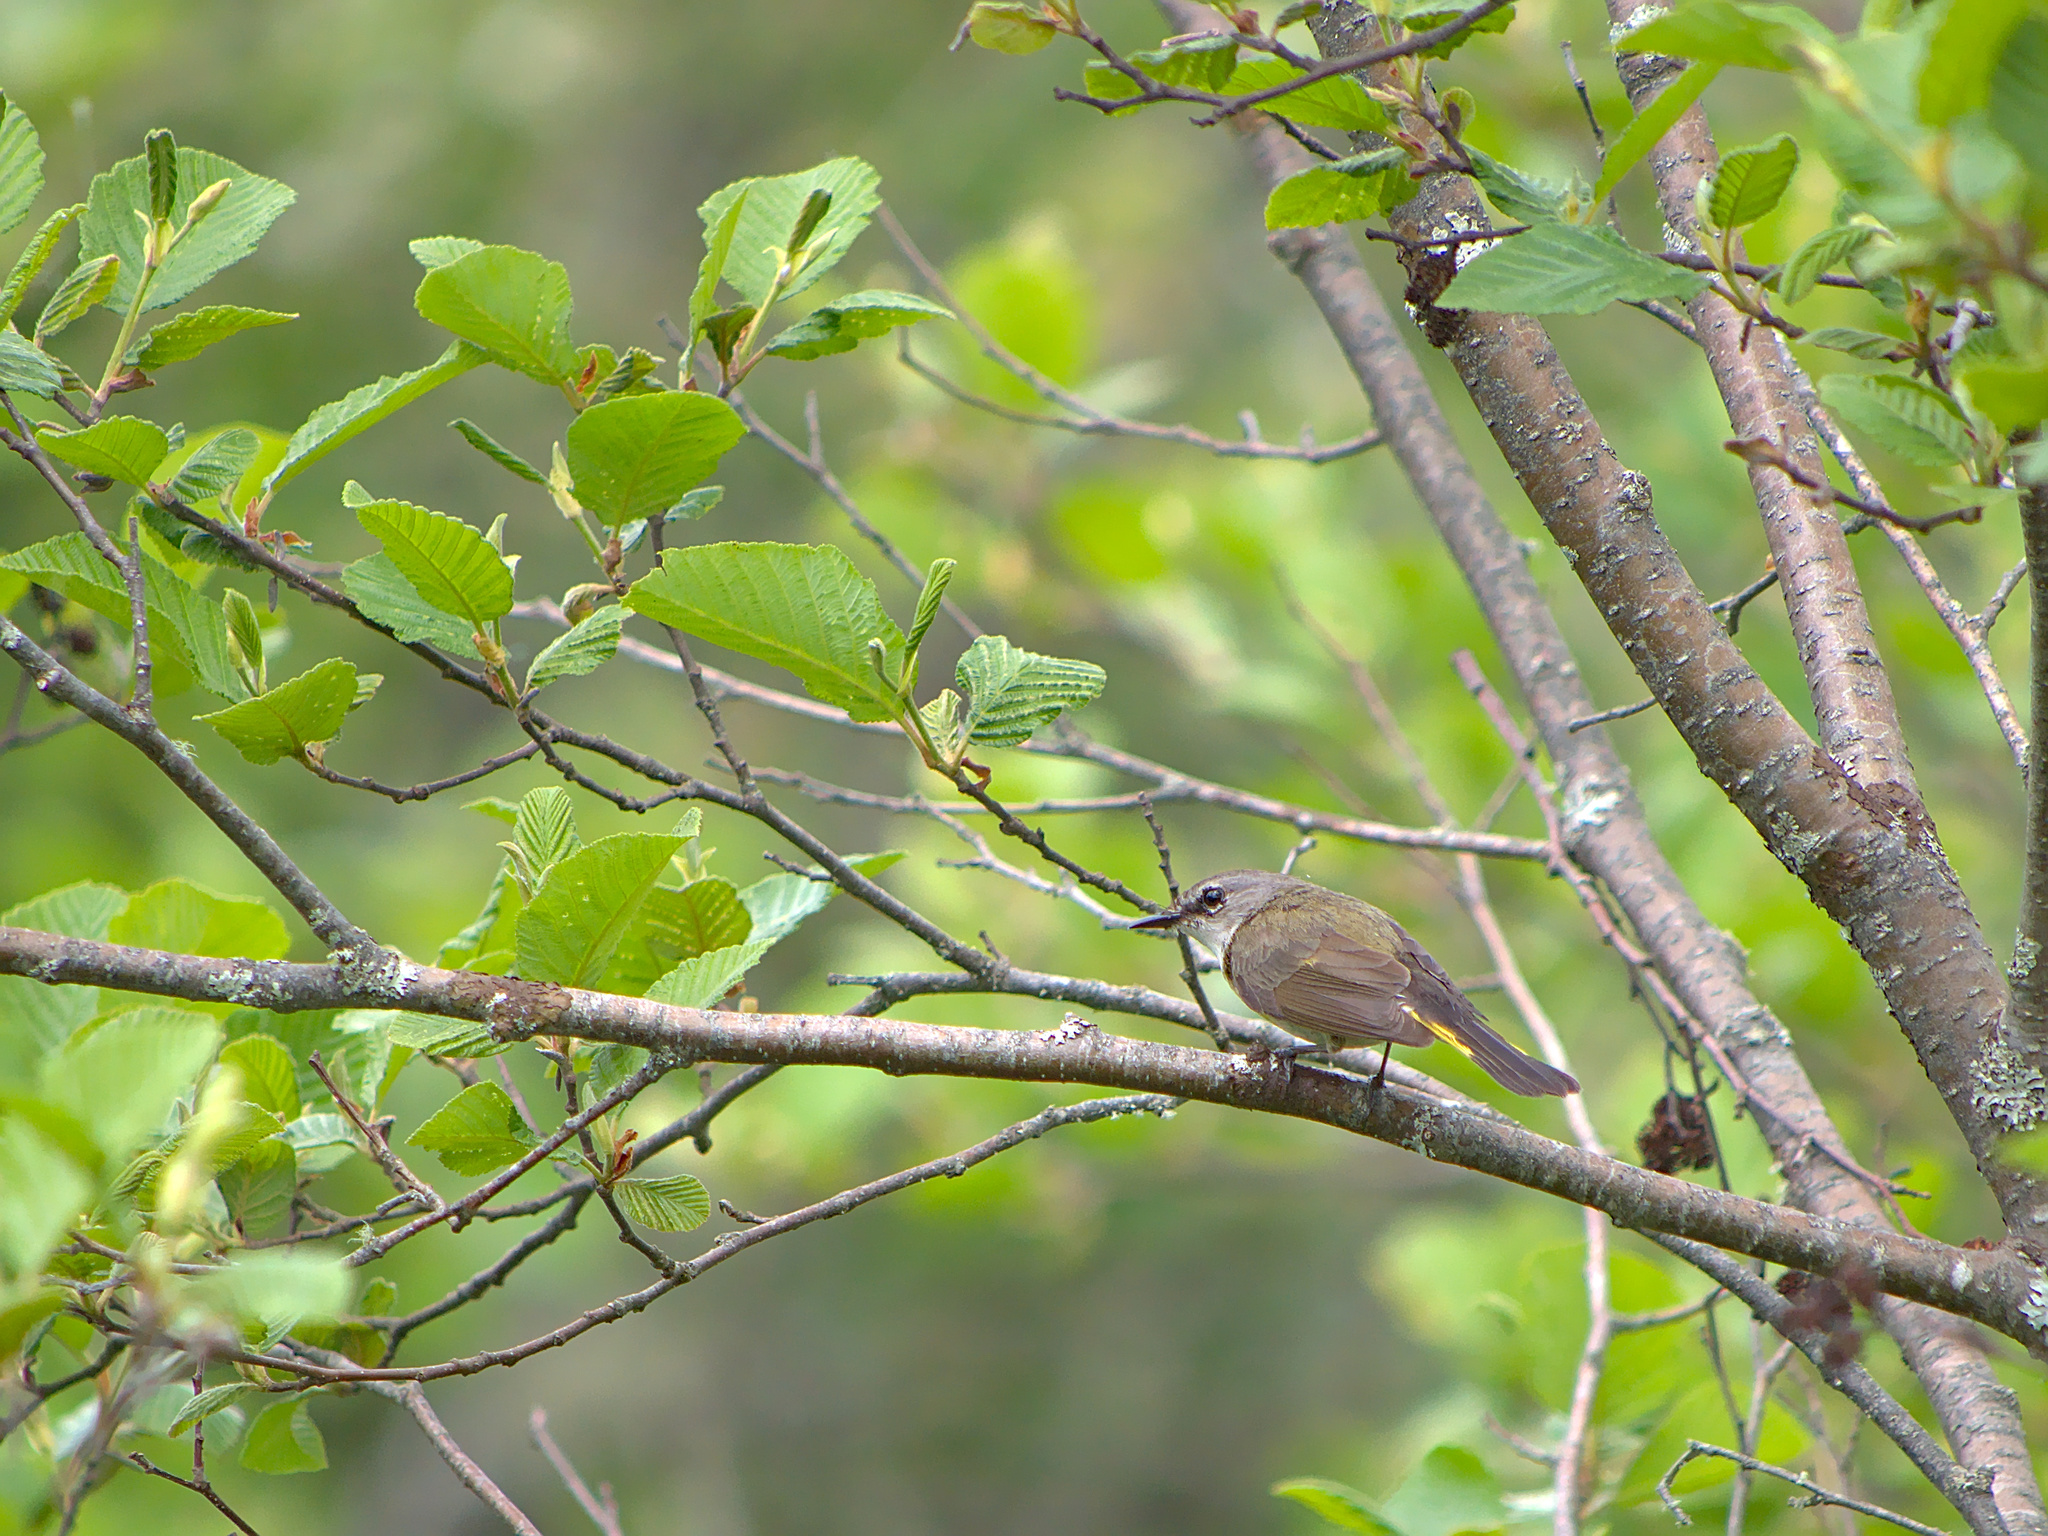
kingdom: Animalia
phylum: Chordata
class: Aves
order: Passeriformes
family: Parulidae
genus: Setophaga
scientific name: Setophaga ruticilla
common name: American redstart
